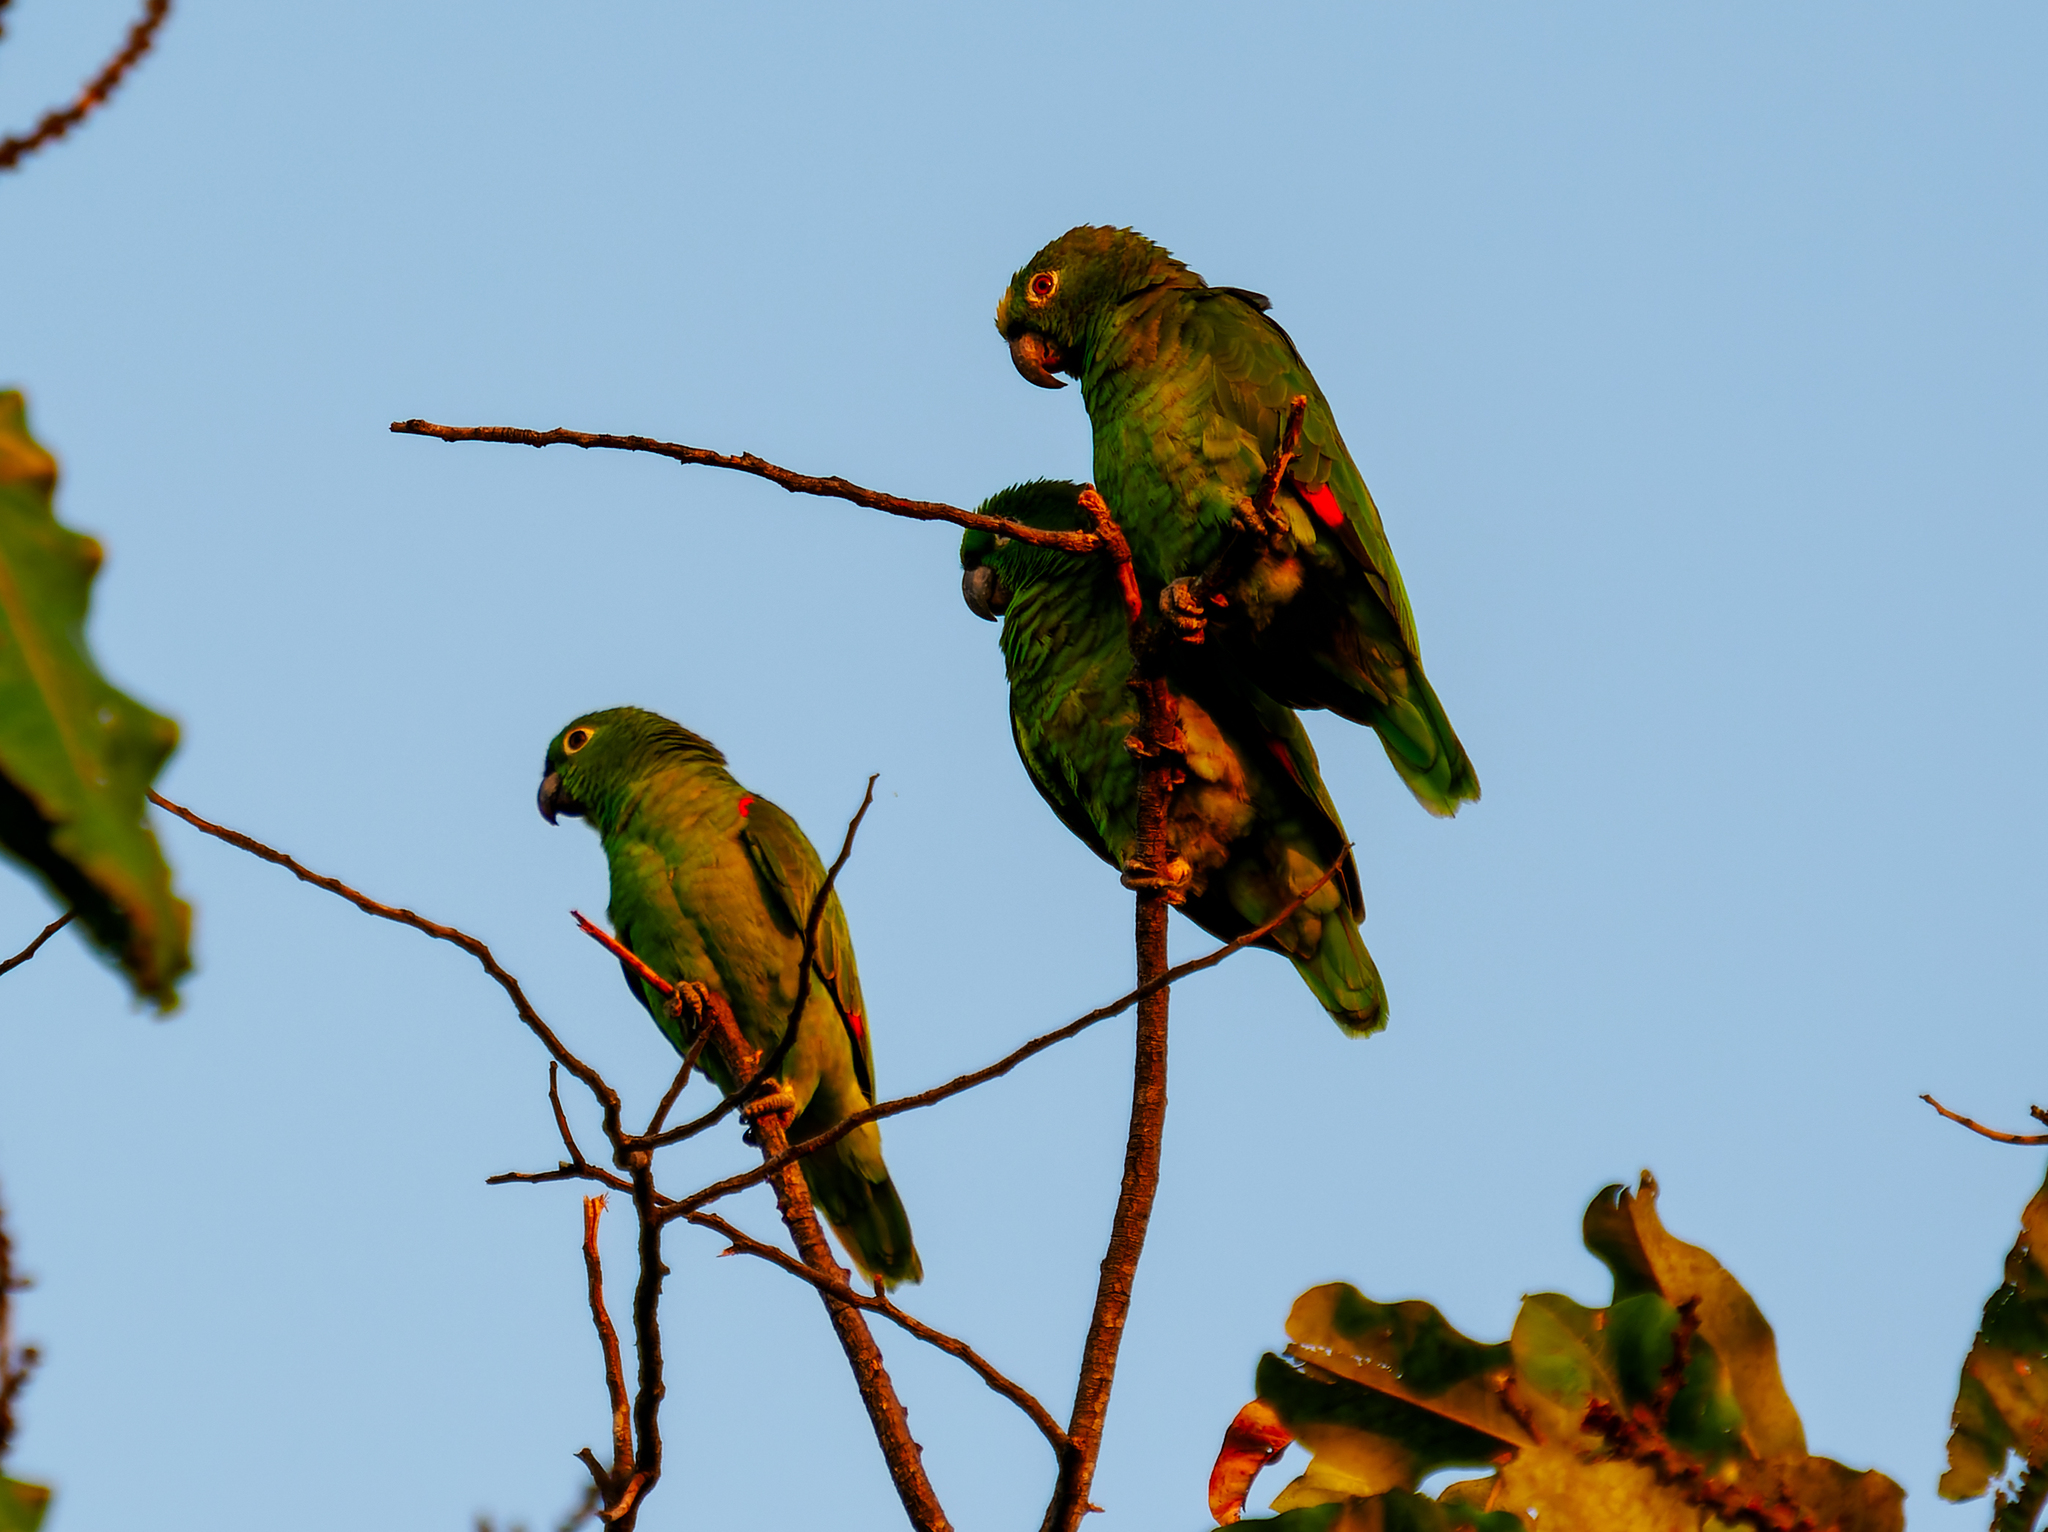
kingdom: Animalia
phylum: Chordata
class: Aves
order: Psittaciformes
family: Psittacidae
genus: Amazona
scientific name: Amazona ochrocephala
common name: Yellow-crowned amazon
